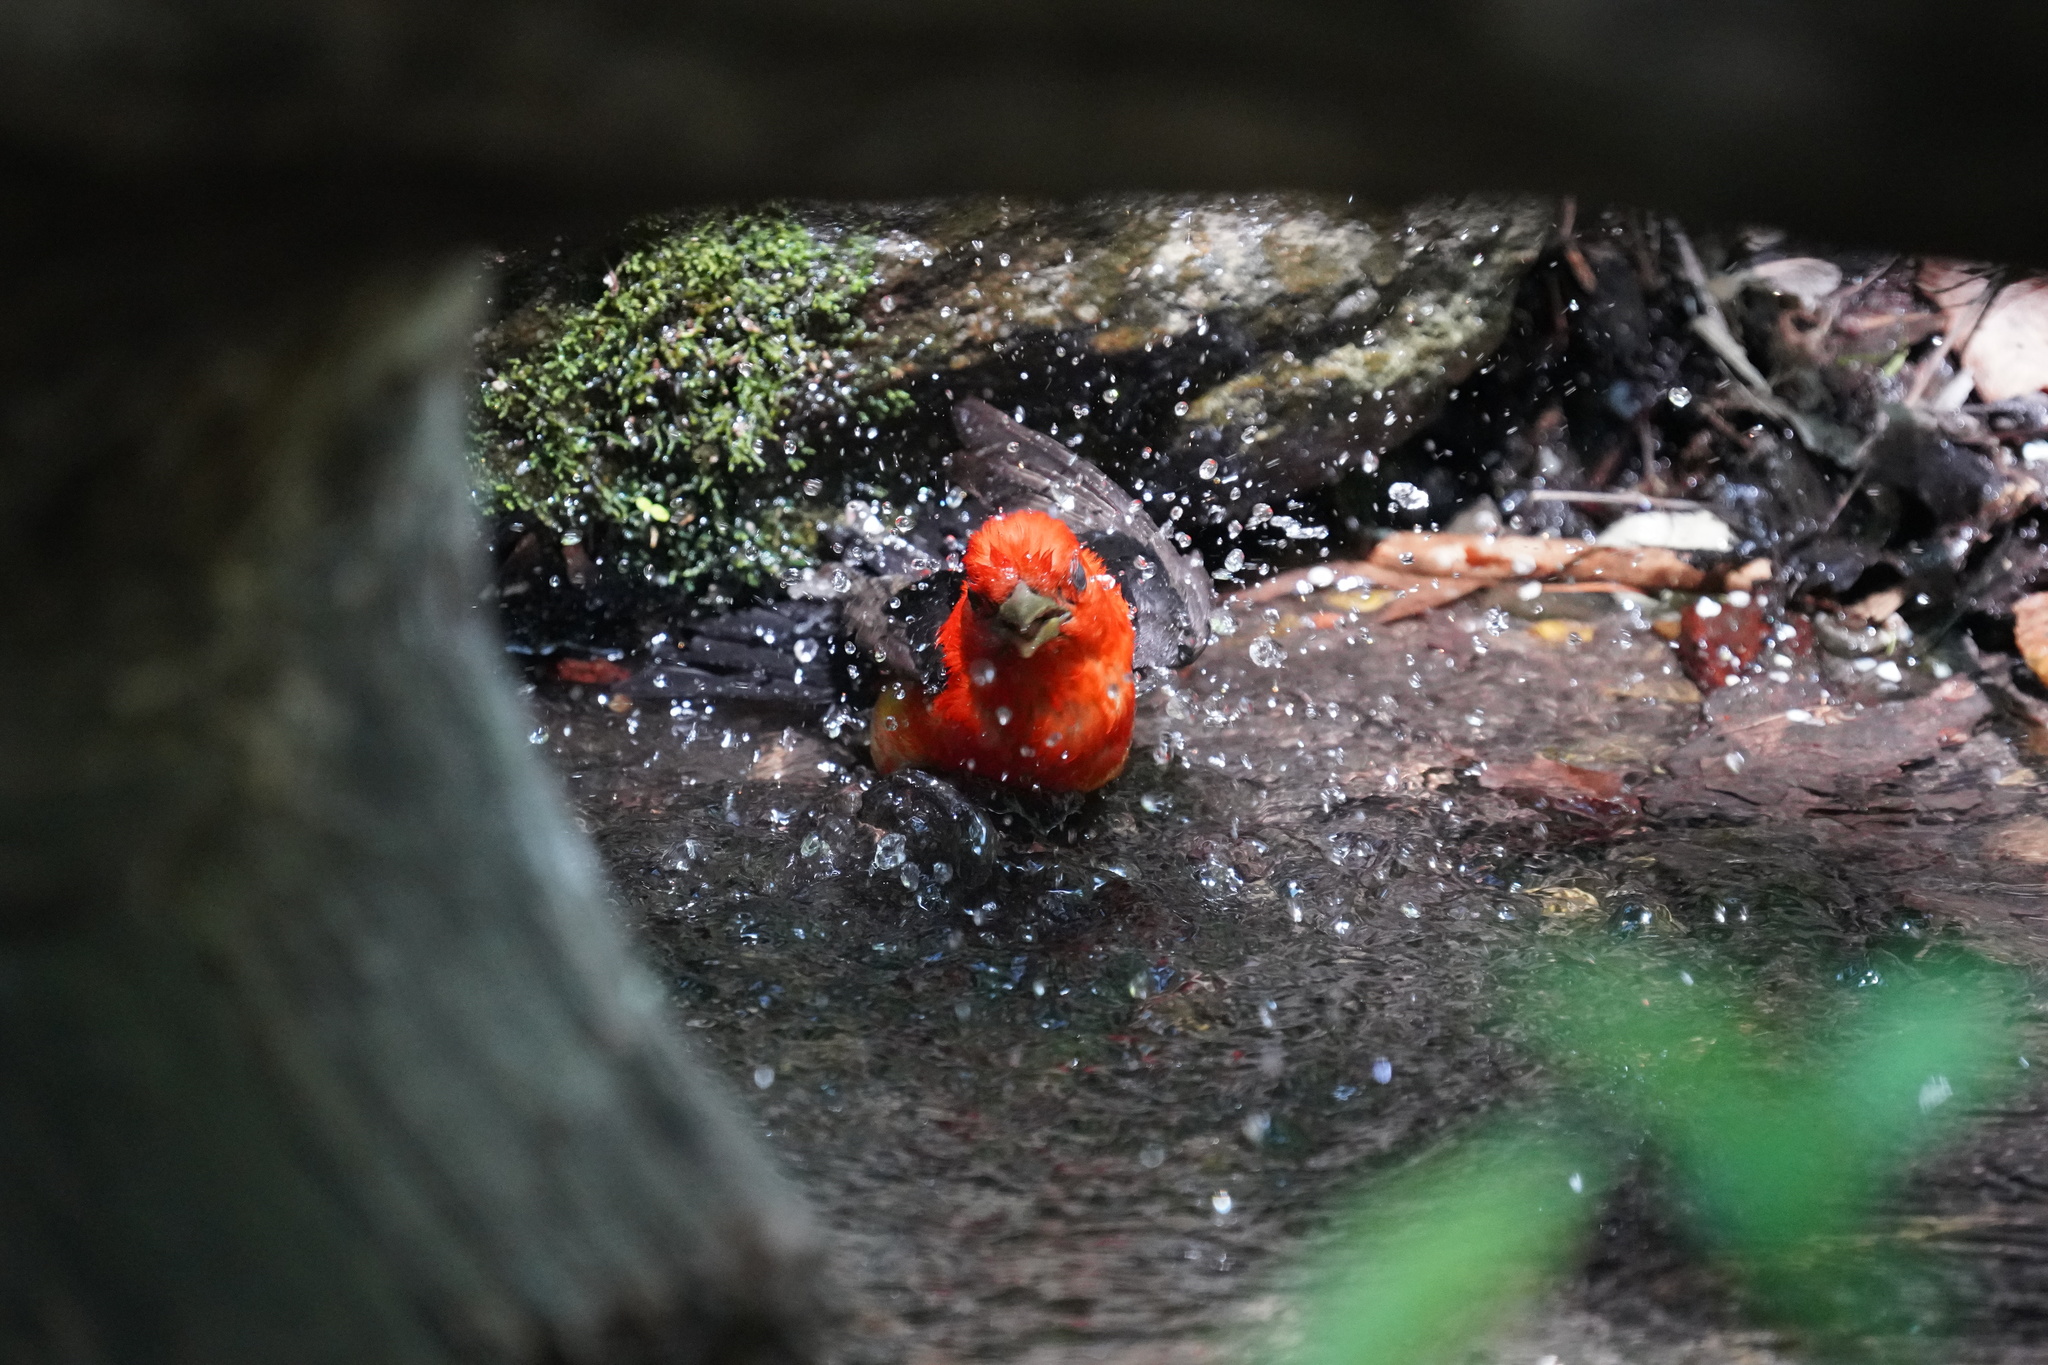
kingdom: Animalia
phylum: Chordata
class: Aves
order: Passeriformes
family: Cardinalidae
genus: Piranga
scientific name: Piranga olivacea
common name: Scarlet tanager
